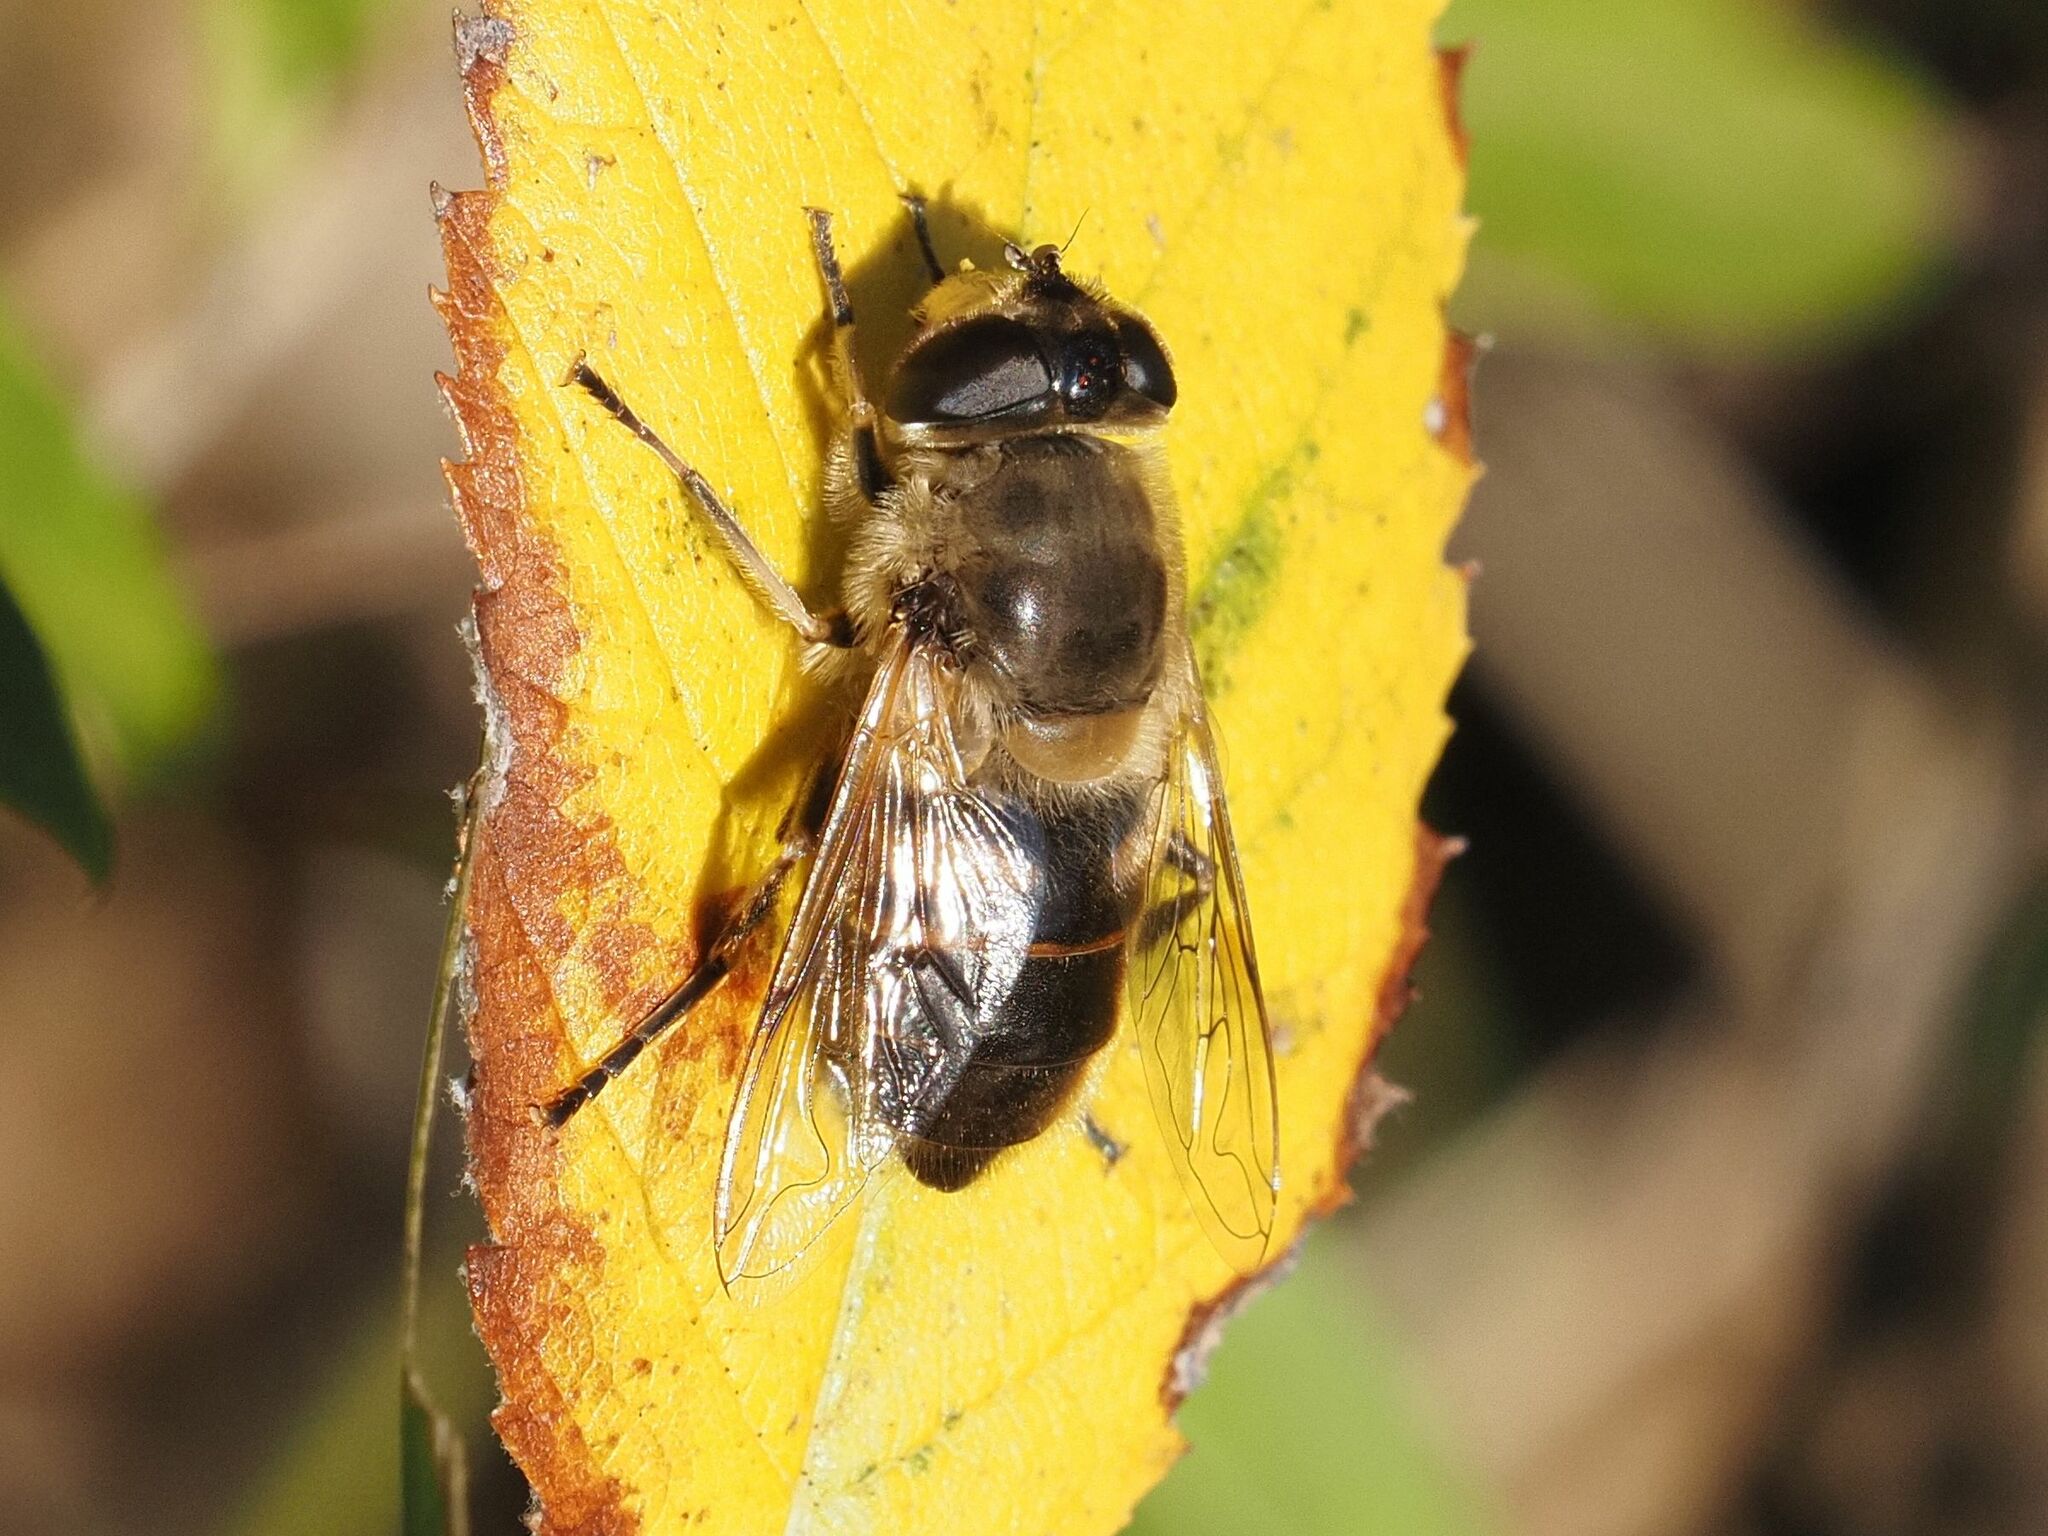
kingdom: Animalia
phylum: Arthropoda
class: Insecta
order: Diptera
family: Syrphidae
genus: Eristalis
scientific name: Eristalis tenax
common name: Drone fly
